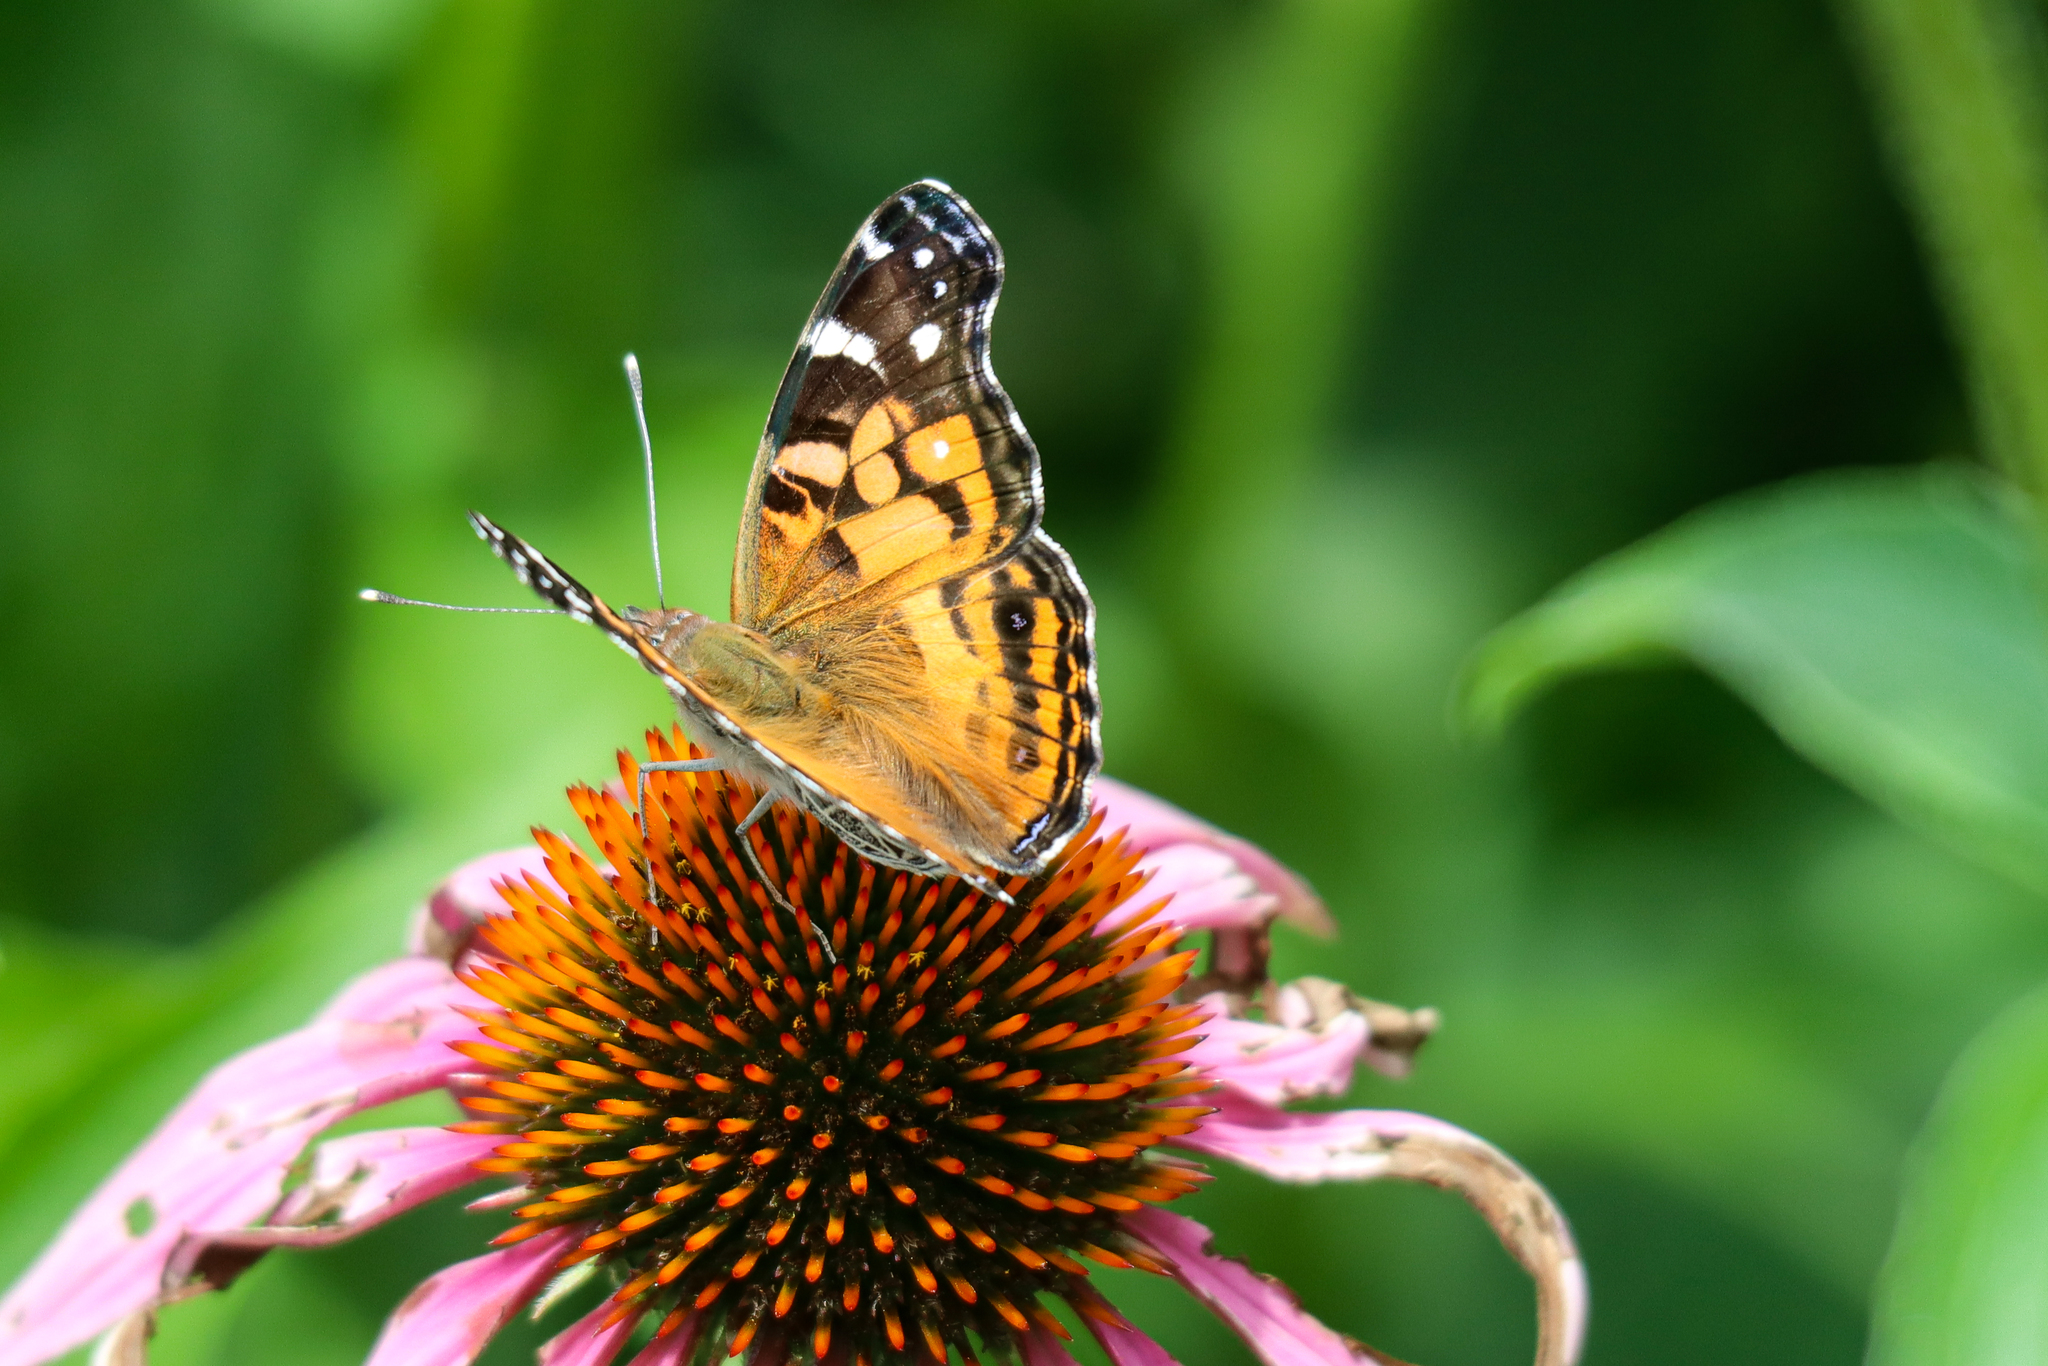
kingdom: Animalia
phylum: Arthropoda
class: Insecta
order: Lepidoptera
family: Nymphalidae
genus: Vanessa
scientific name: Vanessa virginiensis
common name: American lady
